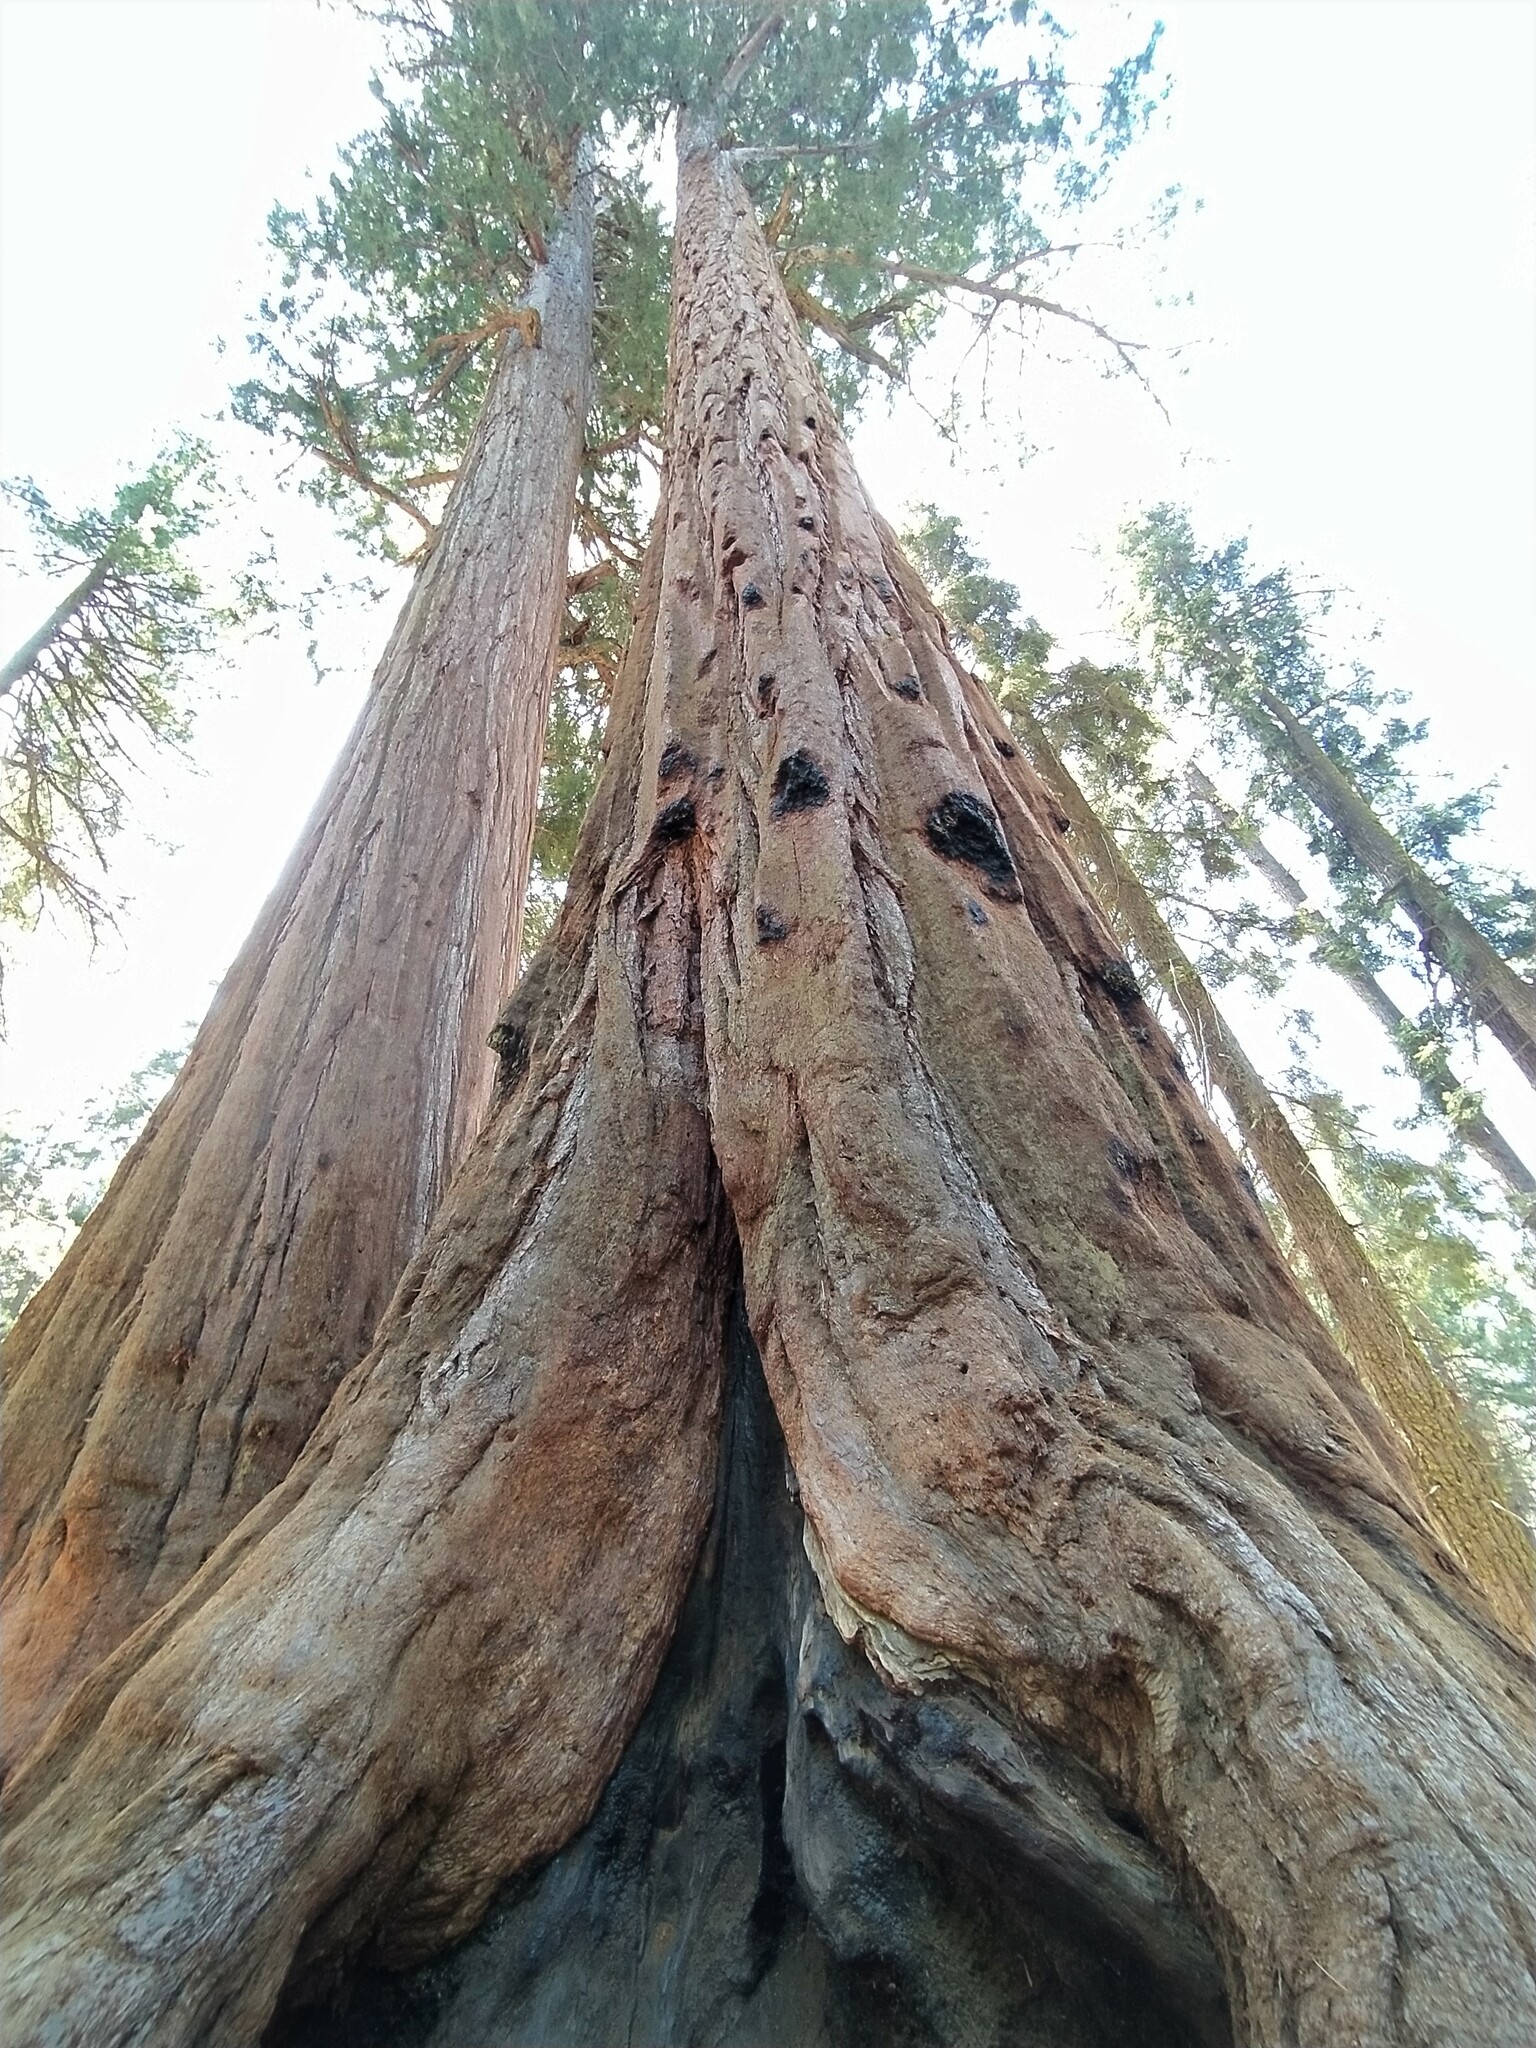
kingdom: Plantae
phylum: Tracheophyta
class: Pinopsida
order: Pinales
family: Cupressaceae
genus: Sequoiadendron
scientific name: Sequoiadendron giganteum
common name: Wellingtonia
